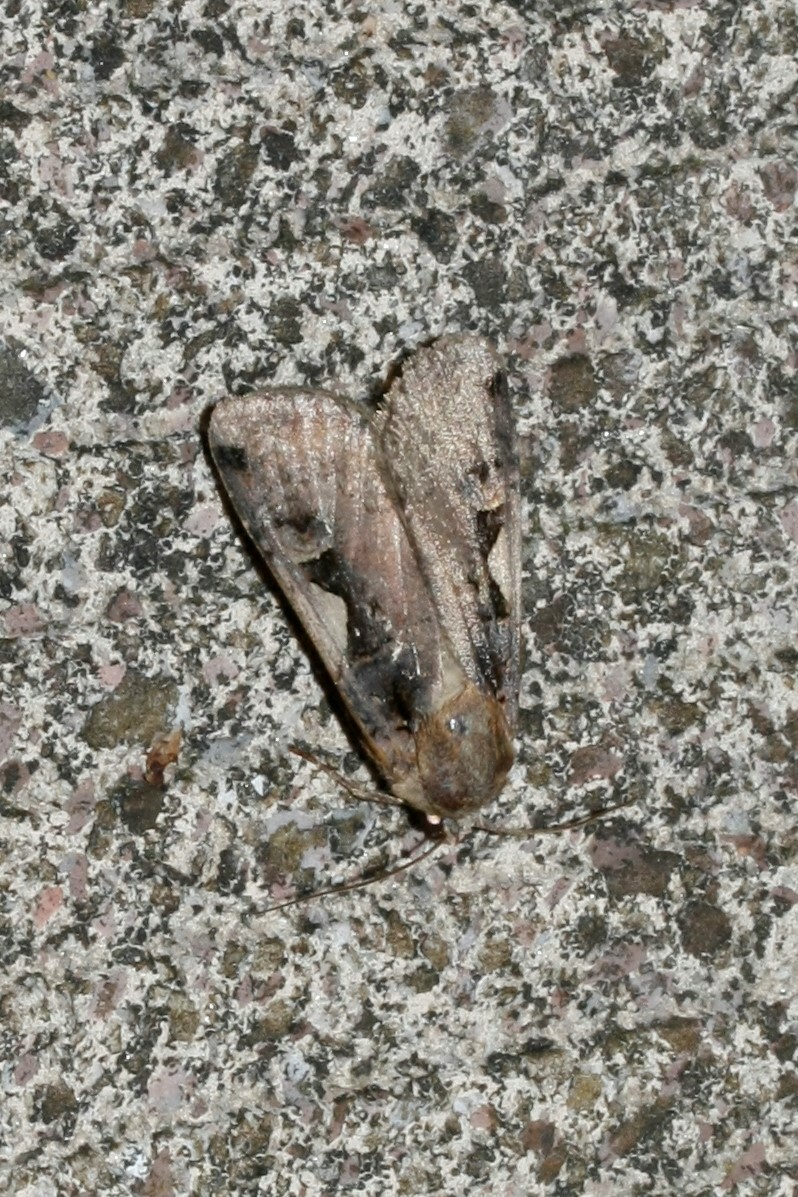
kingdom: Animalia
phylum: Arthropoda
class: Insecta
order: Lepidoptera
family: Noctuidae
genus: Xestia
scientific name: Xestia c-nigrum
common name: Setaceous hebrew character
